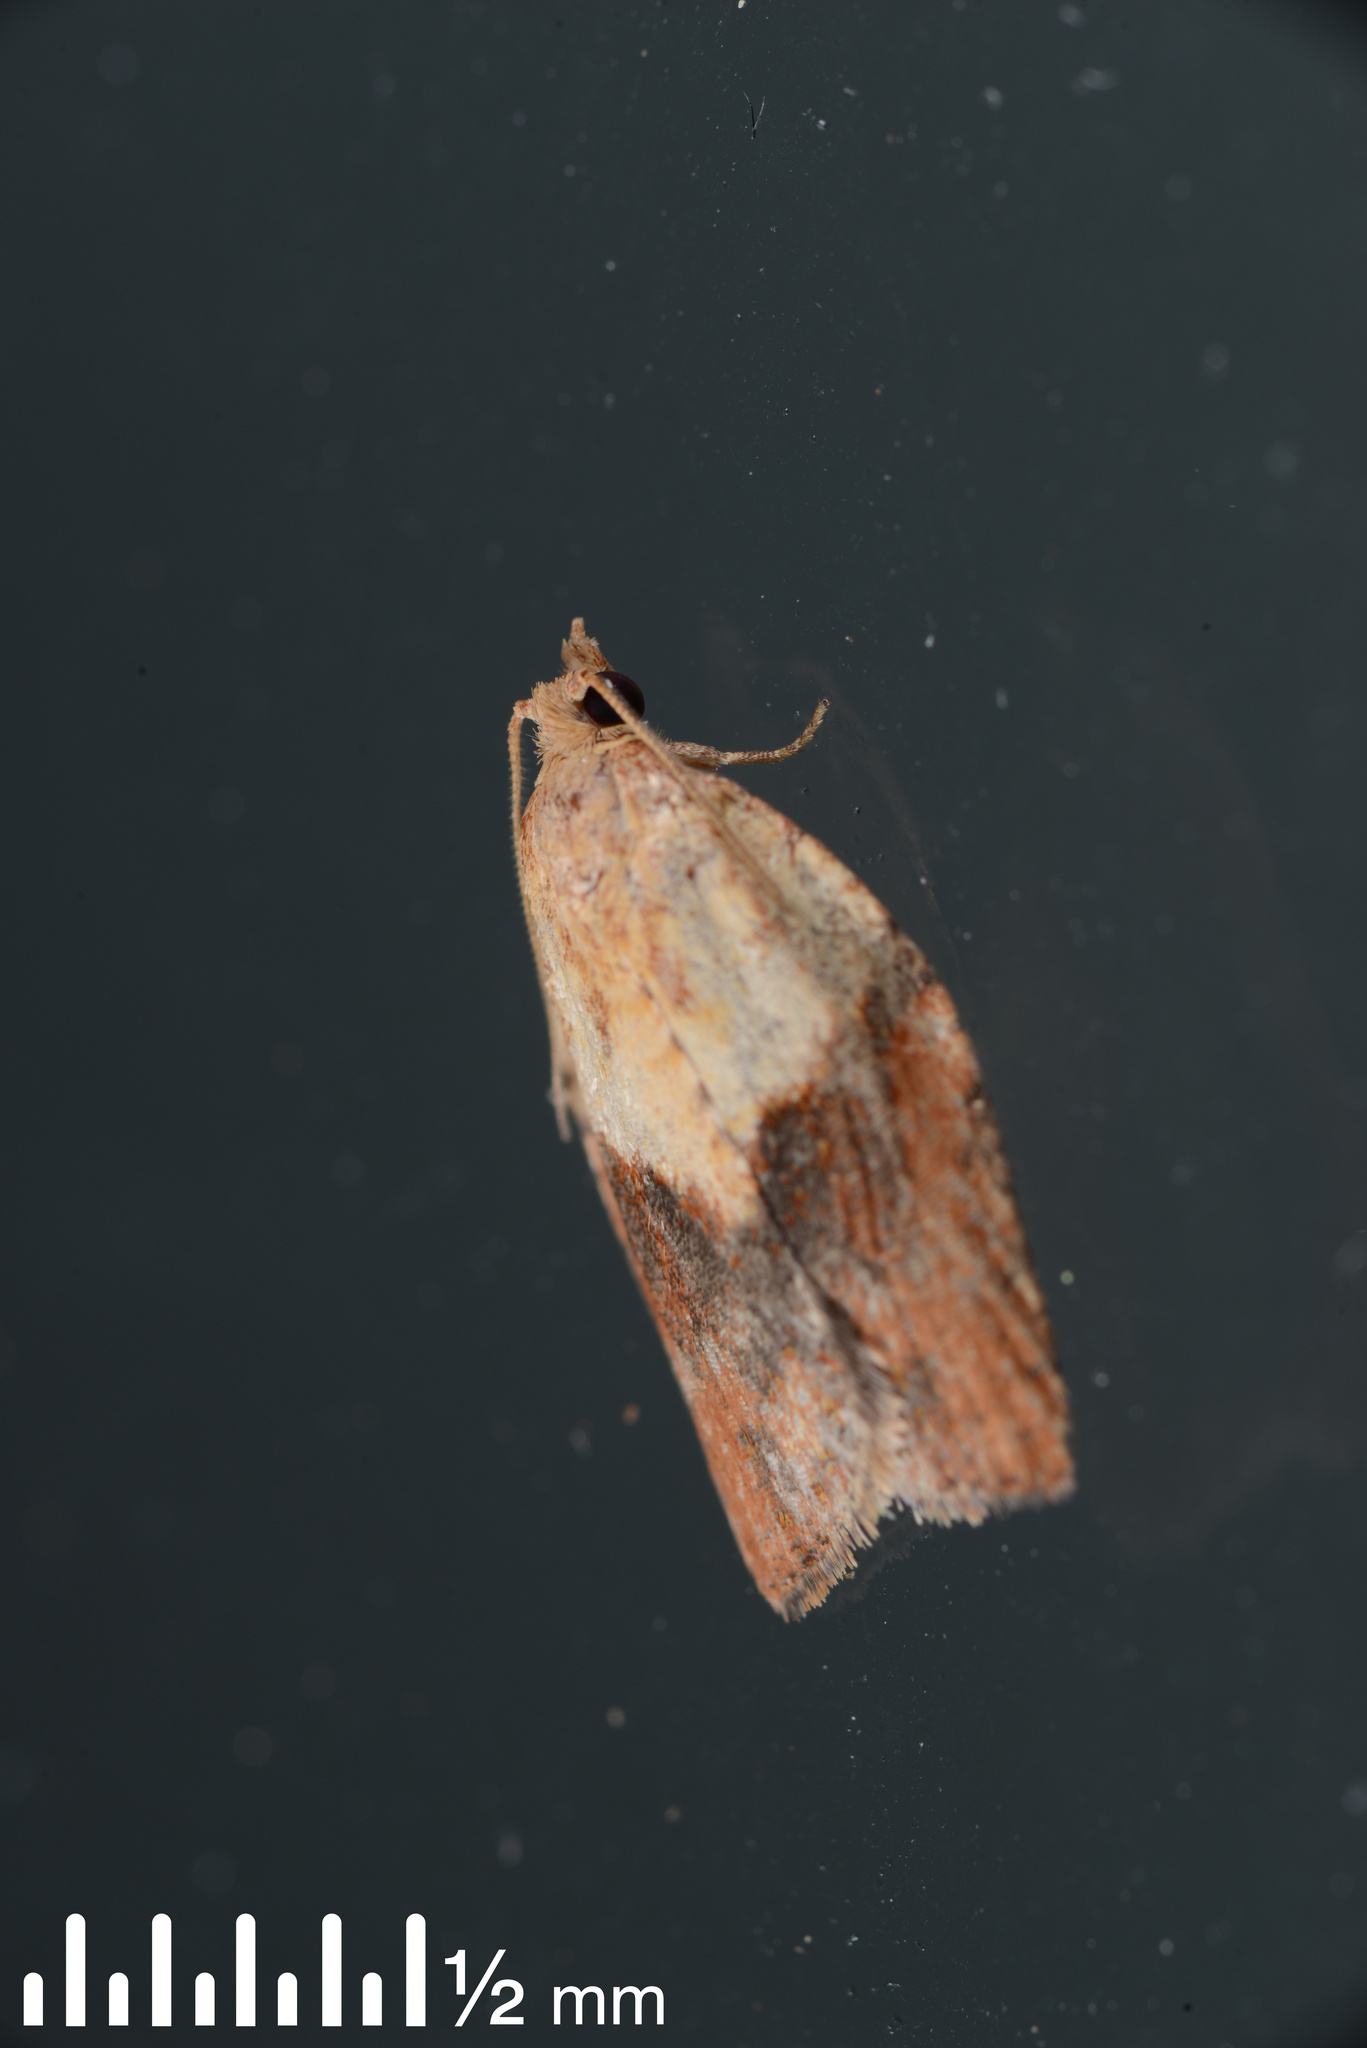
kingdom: Animalia
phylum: Arthropoda
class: Insecta
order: Lepidoptera
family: Tortricidae
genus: Epiphyas
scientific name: Epiphyas postvittana
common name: Light brown apple moth
